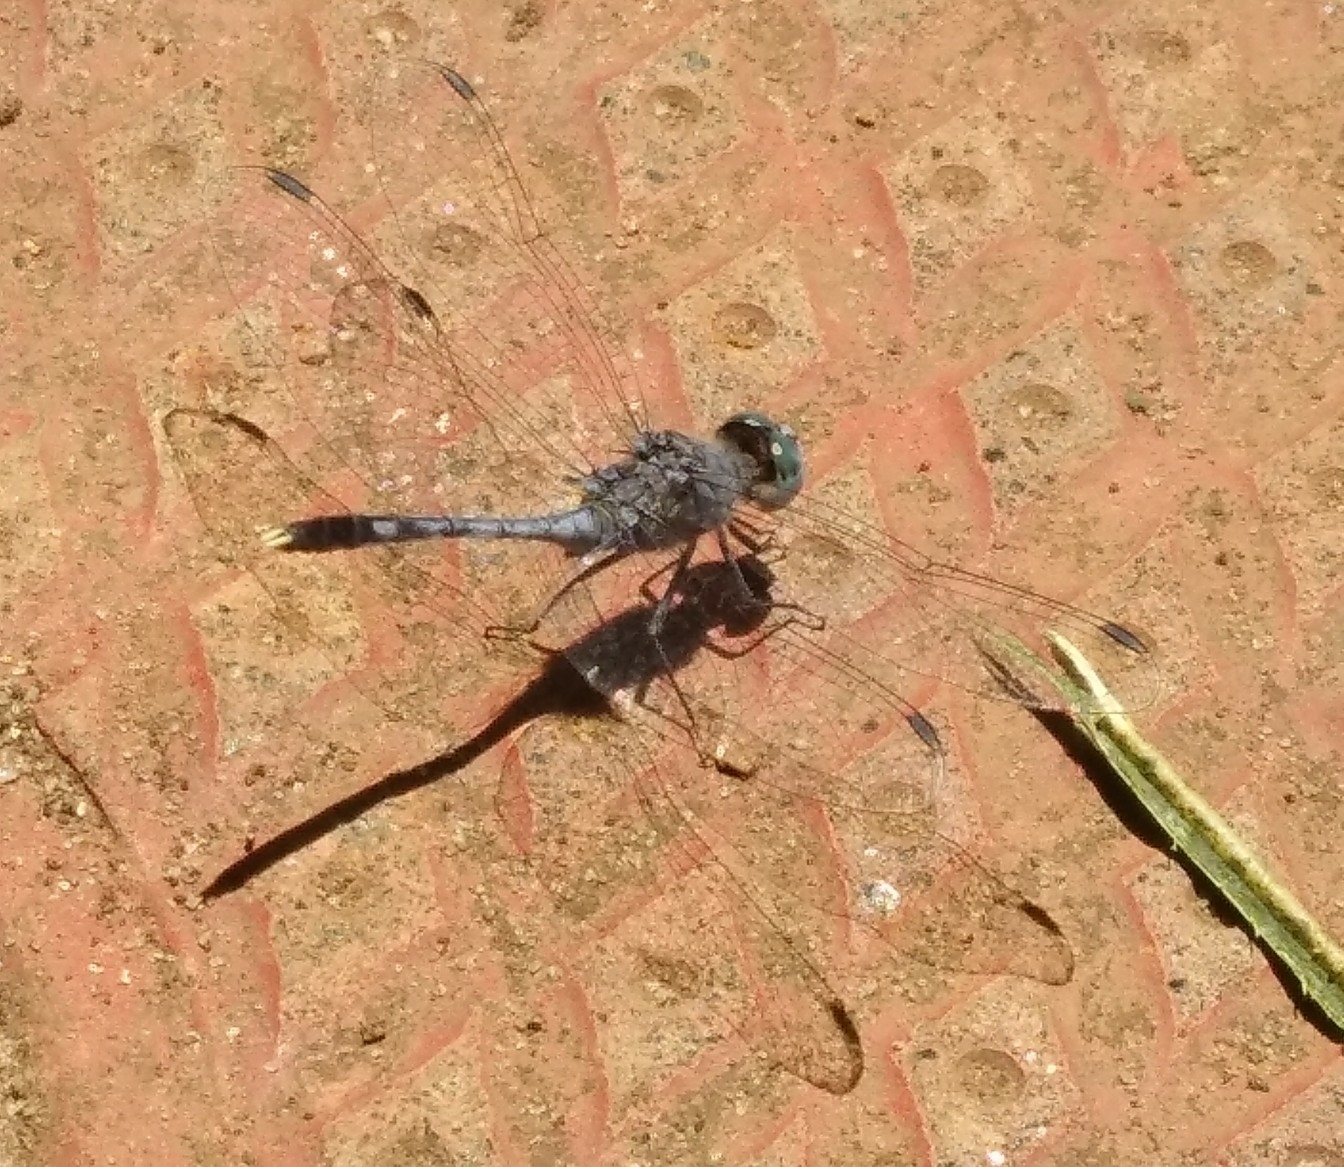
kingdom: Animalia
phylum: Arthropoda
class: Insecta
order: Odonata
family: Libellulidae
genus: Diplacodes
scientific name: Diplacodes trivialis
